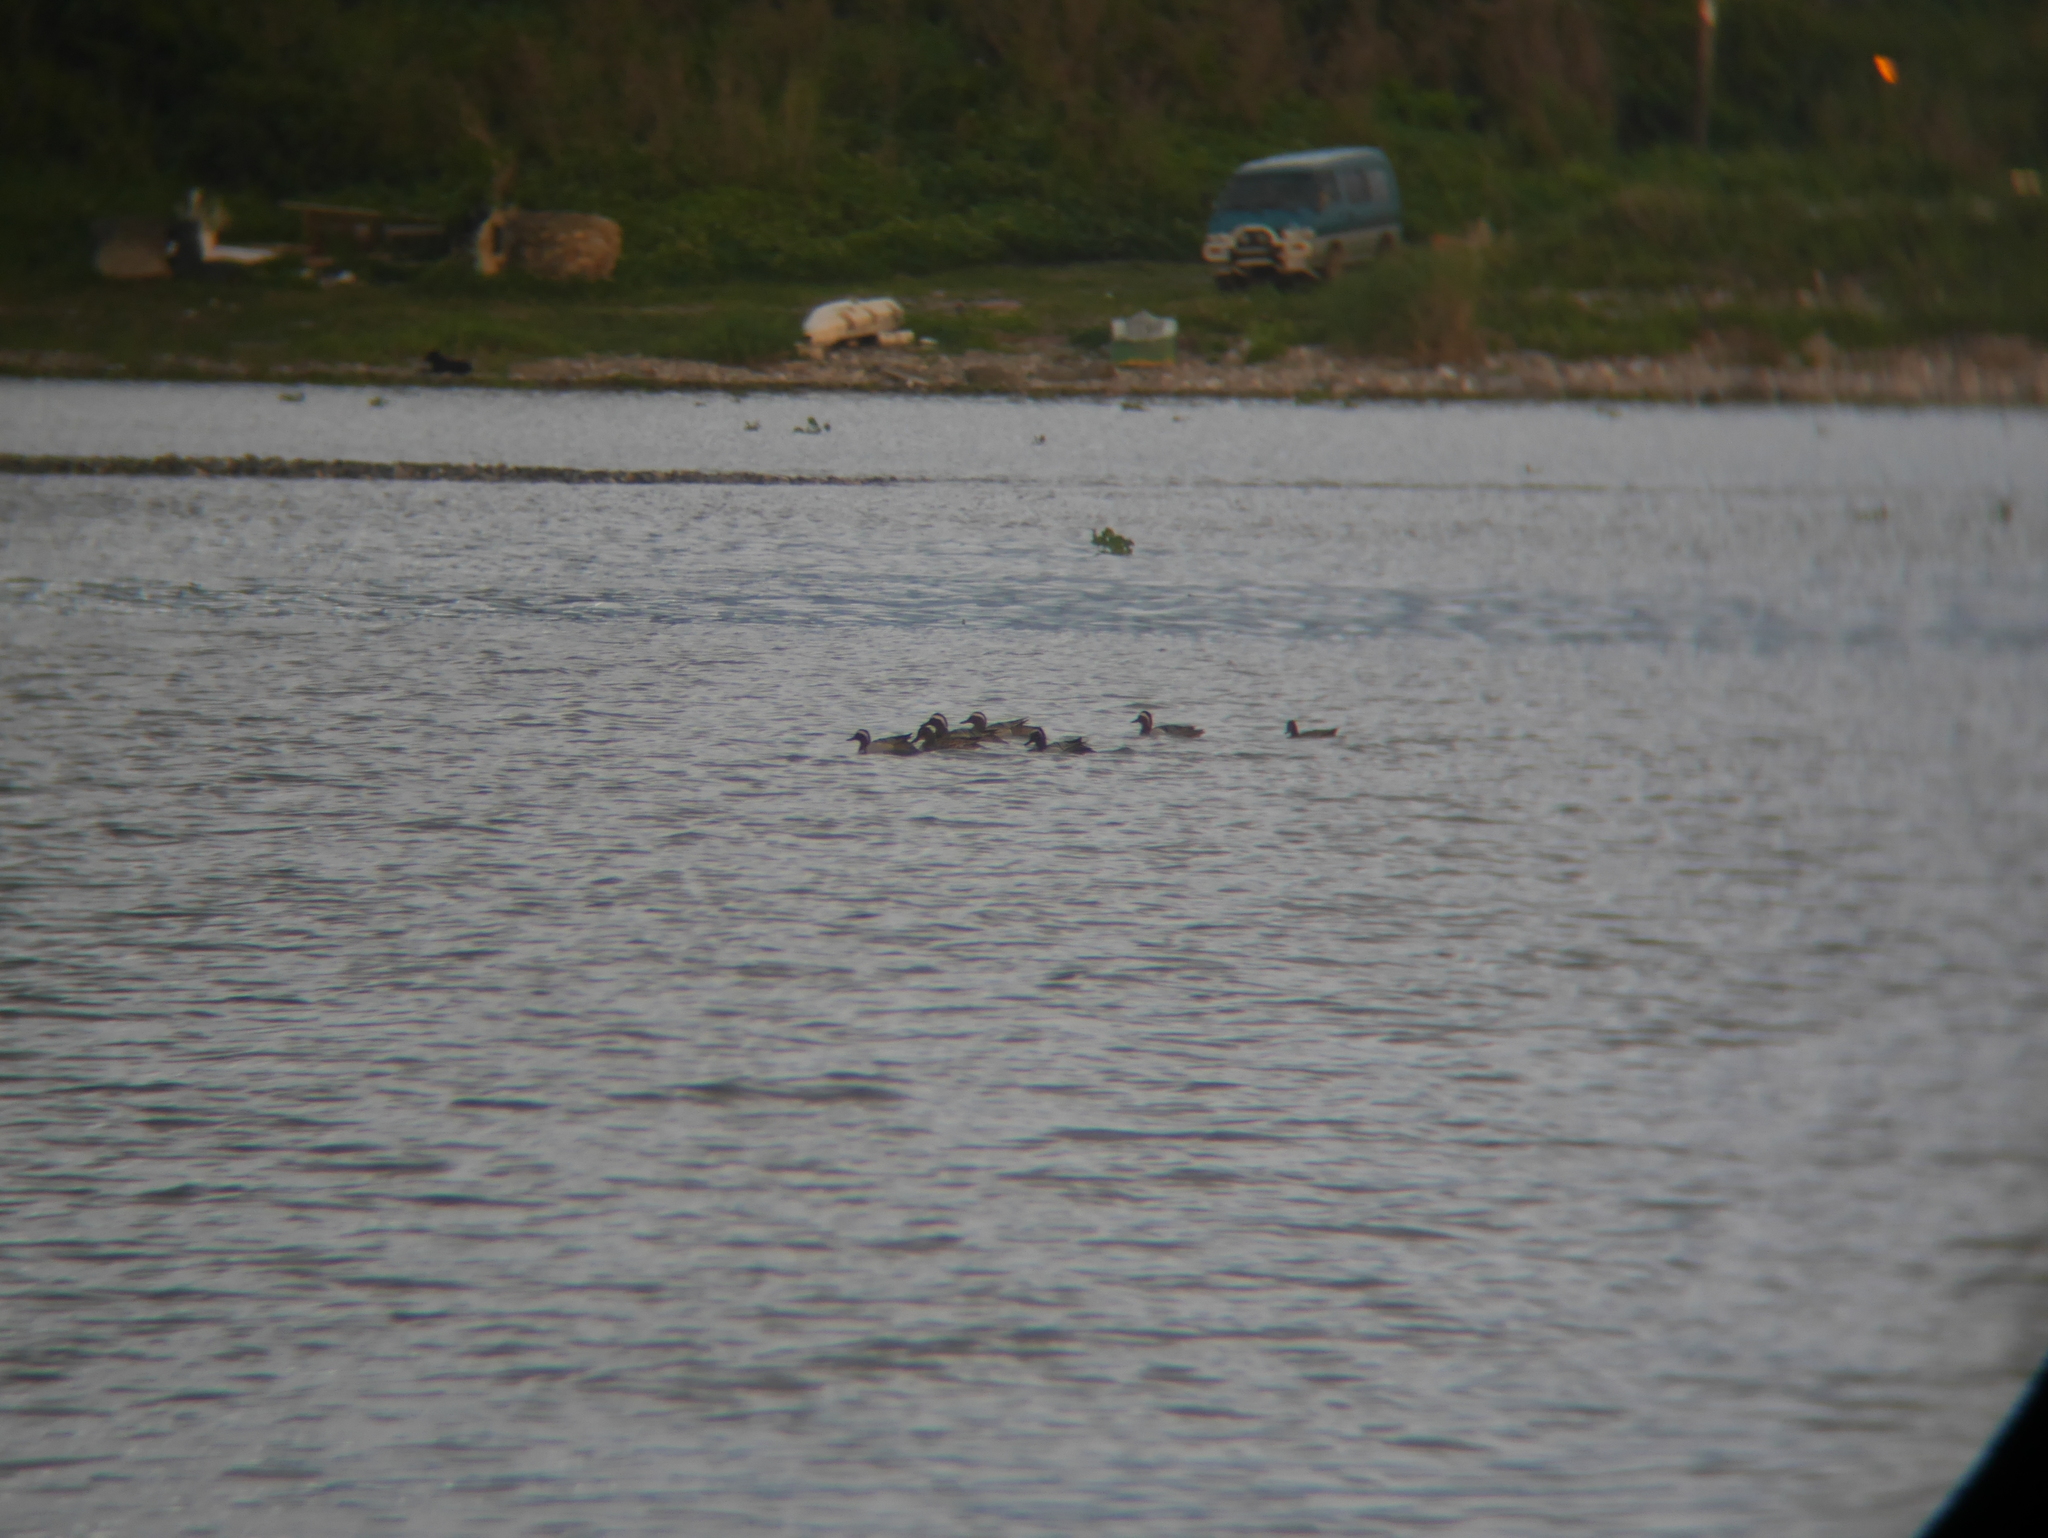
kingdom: Animalia
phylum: Chordata
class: Aves
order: Anseriformes
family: Anatidae
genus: Spatula
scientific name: Spatula querquedula
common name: Garganey
